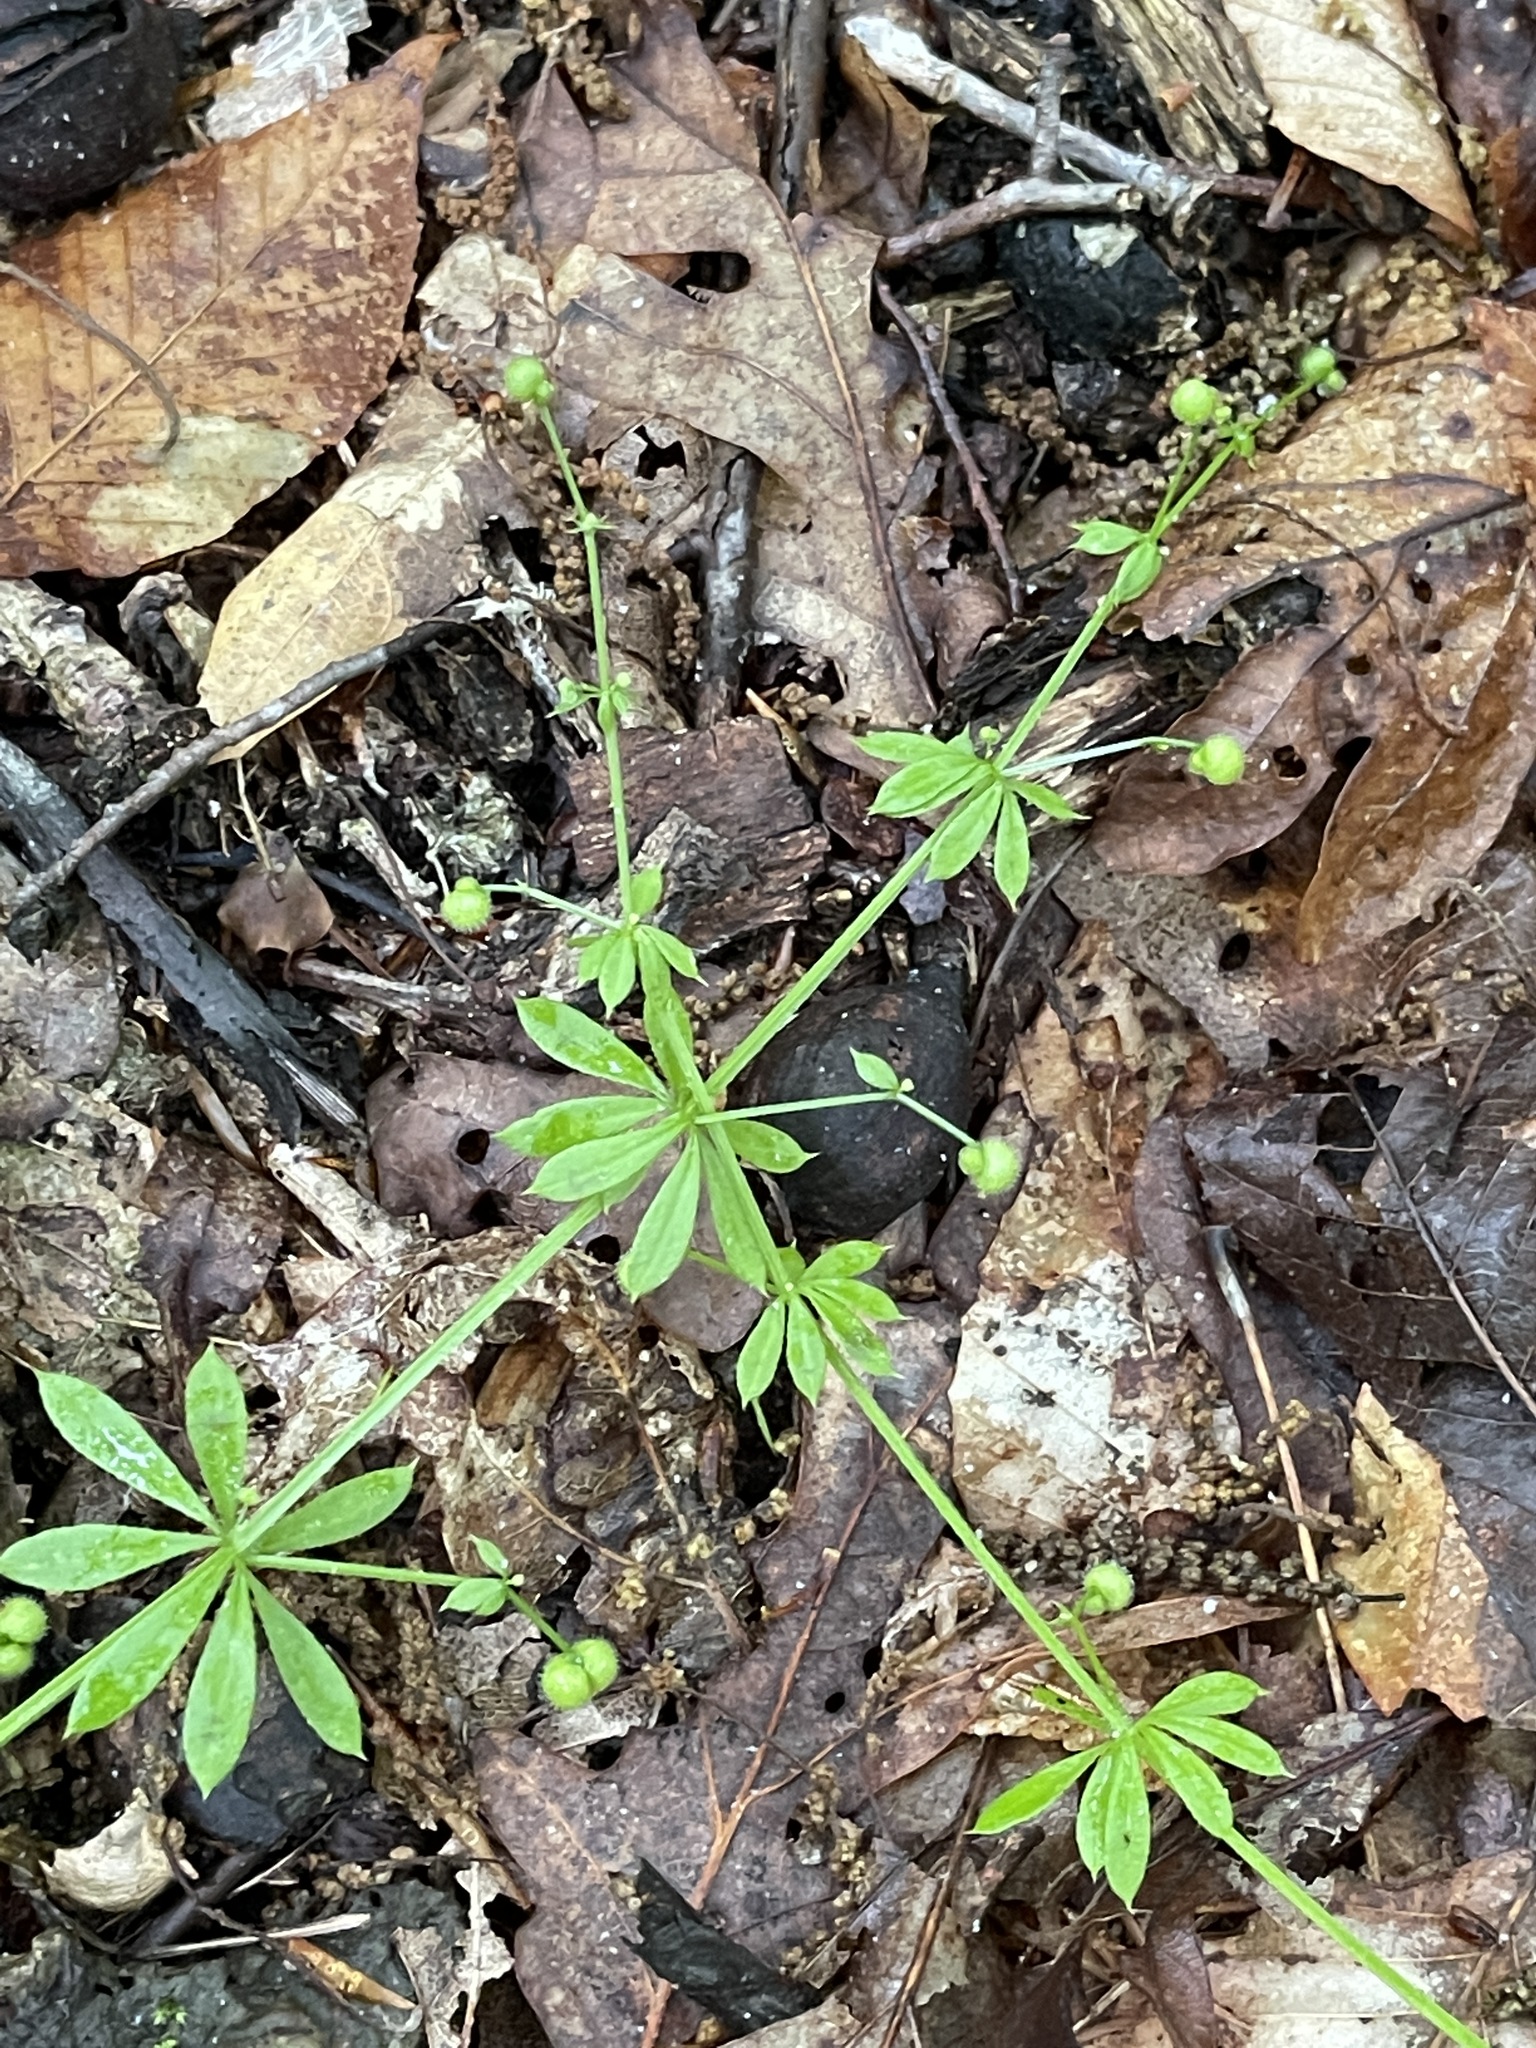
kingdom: Plantae
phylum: Tracheophyta
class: Magnoliopsida
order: Gentianales
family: Rubiaceae
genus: Galium
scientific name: Galium aparine
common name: Cleavers
